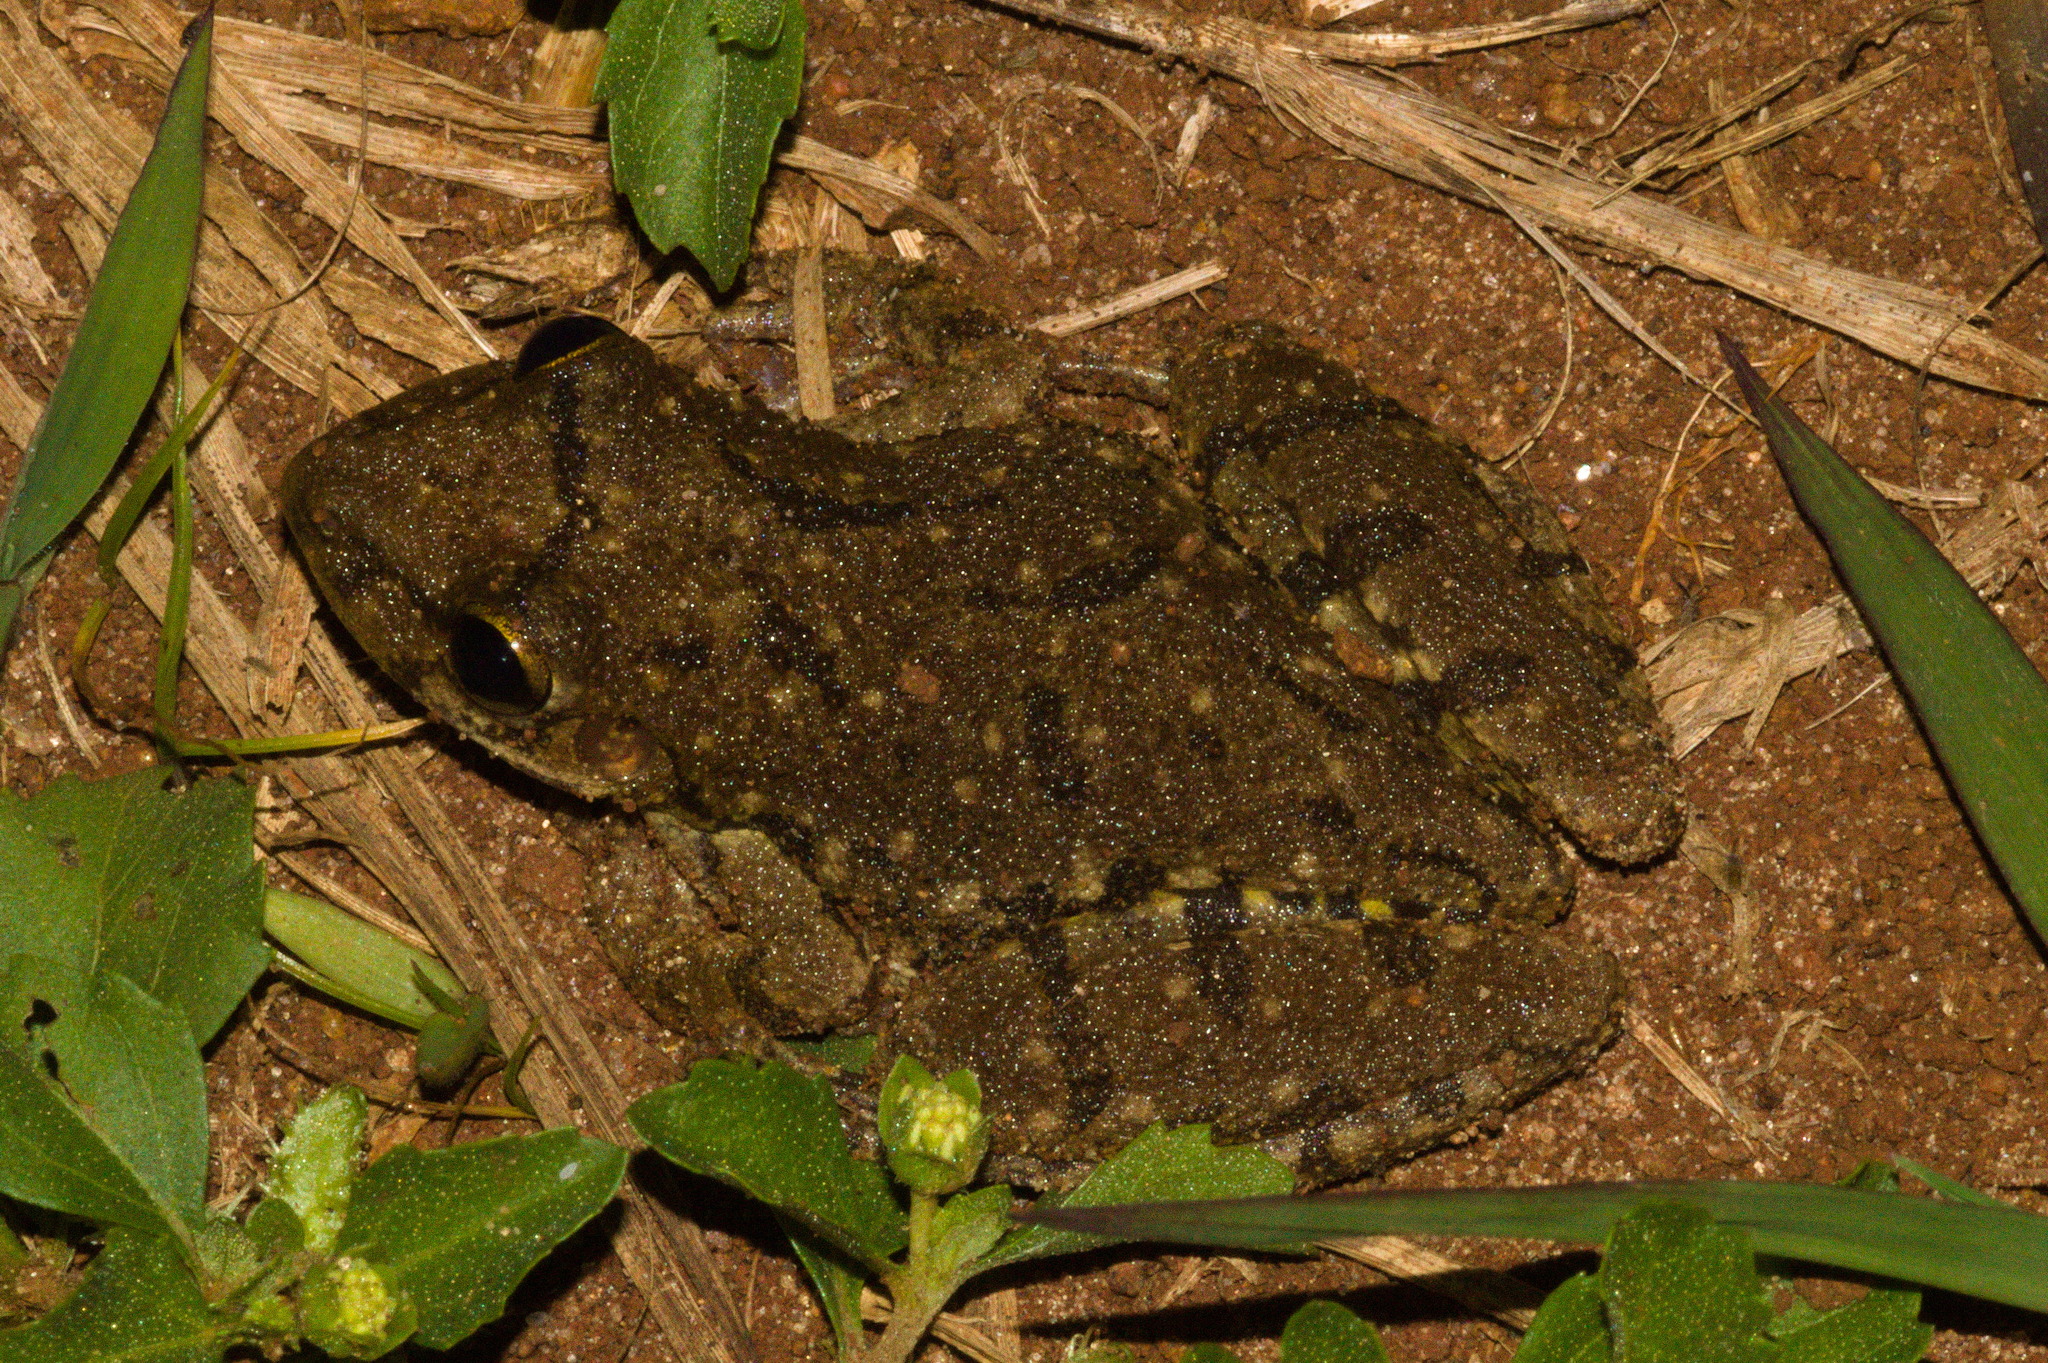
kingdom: Animalia
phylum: Chordata
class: Amphibia
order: Anura
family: Hylidae
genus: Scinax
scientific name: Scinax fuscovarius
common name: Fuscous-blotched treefrog
